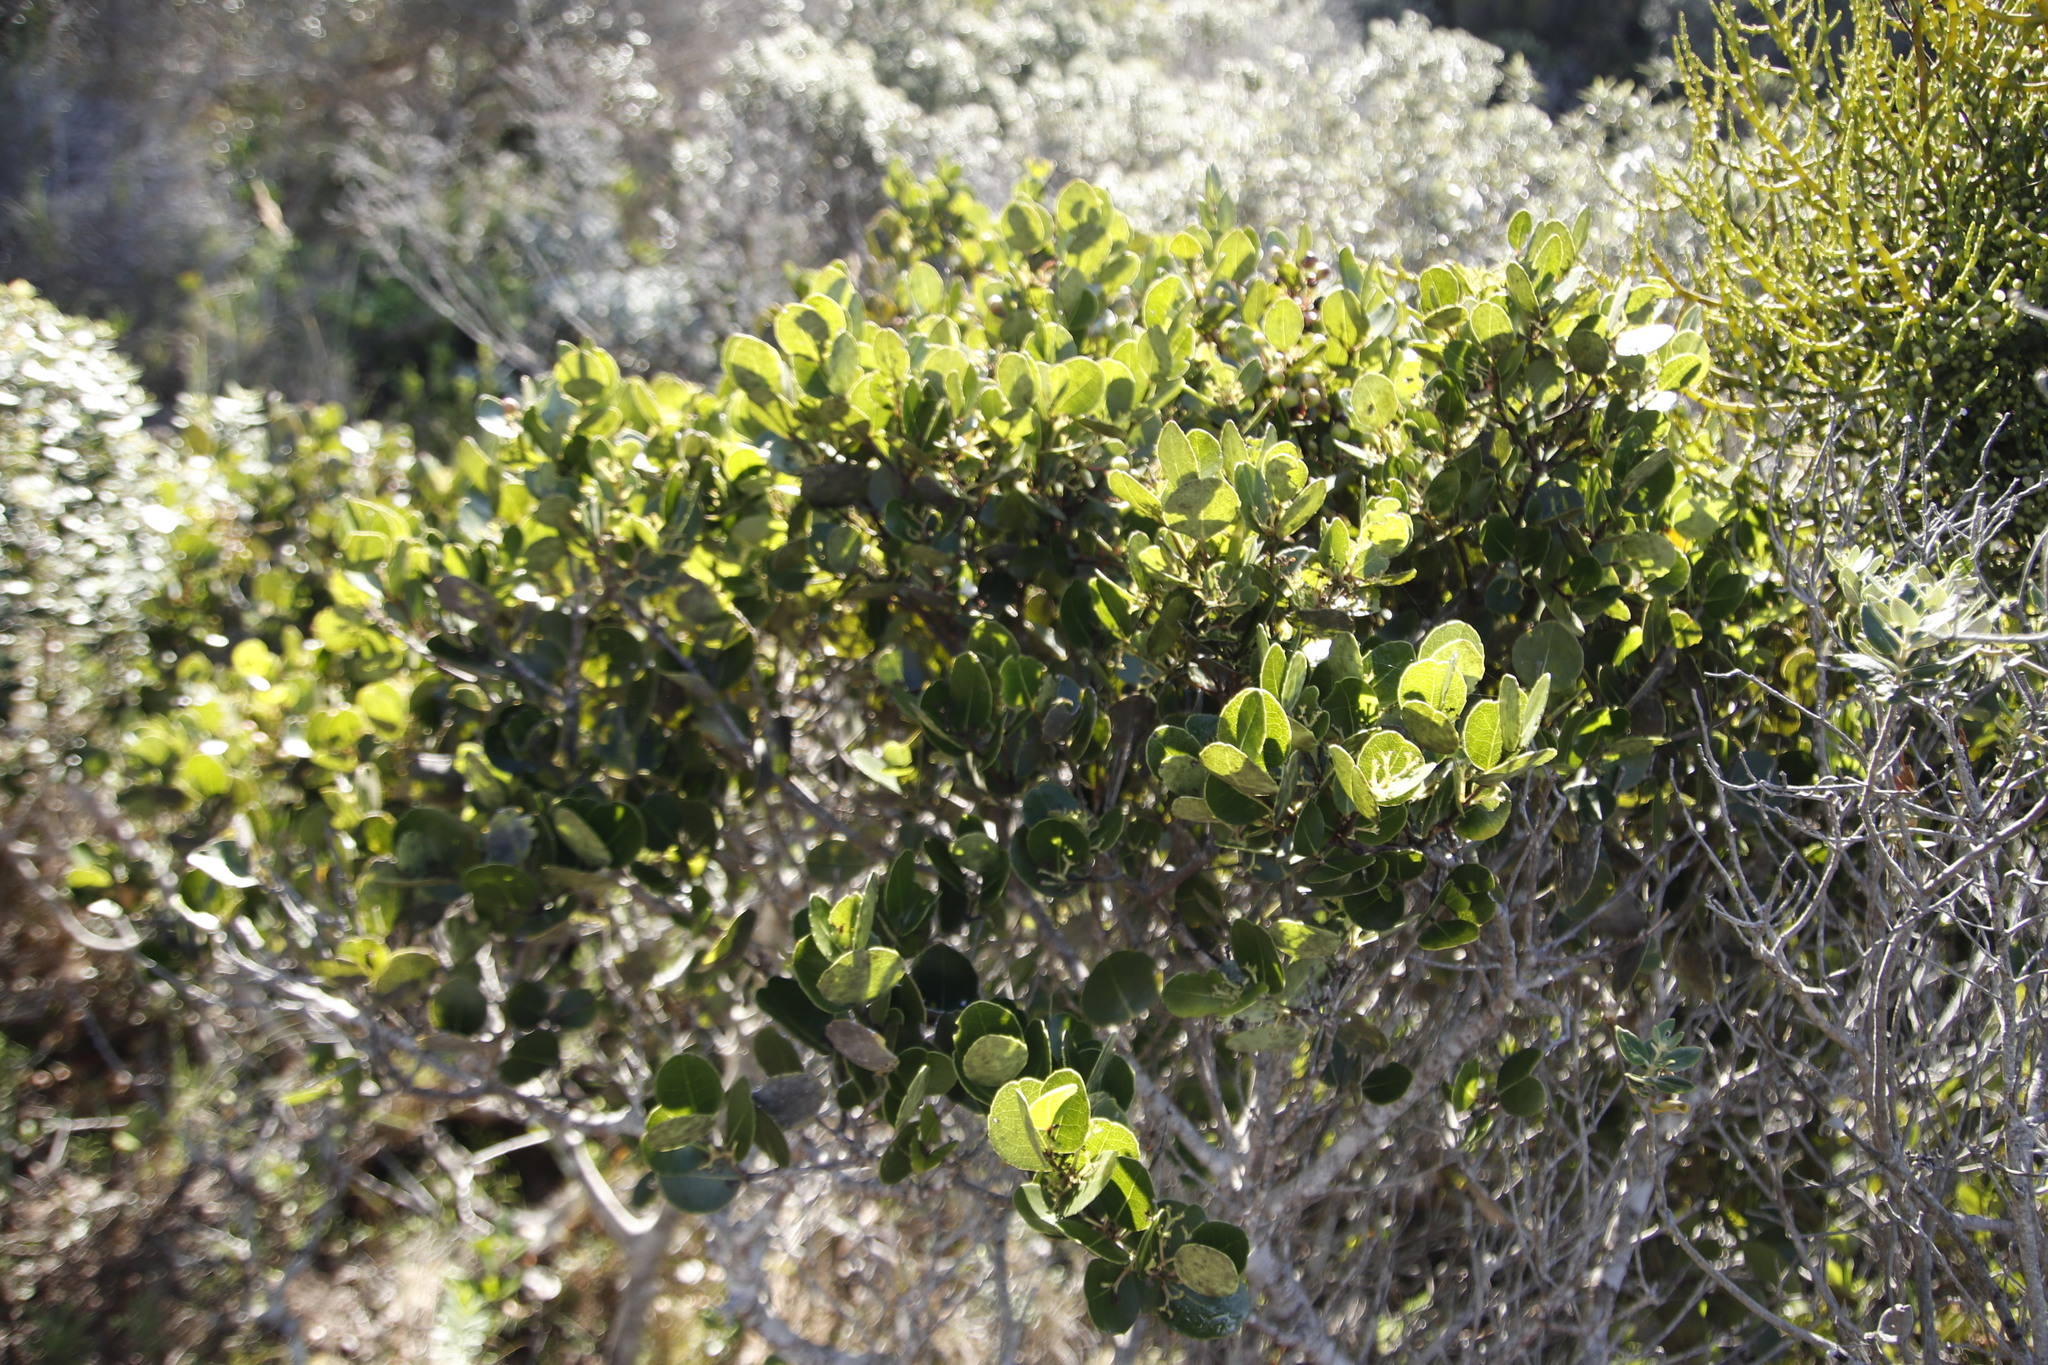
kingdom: Plantae
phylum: Tracheophyta
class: Magnoliopsida
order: Celastrales
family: Celastraceae
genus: Cassine
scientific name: Cassine peragua
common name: Cape saffron
